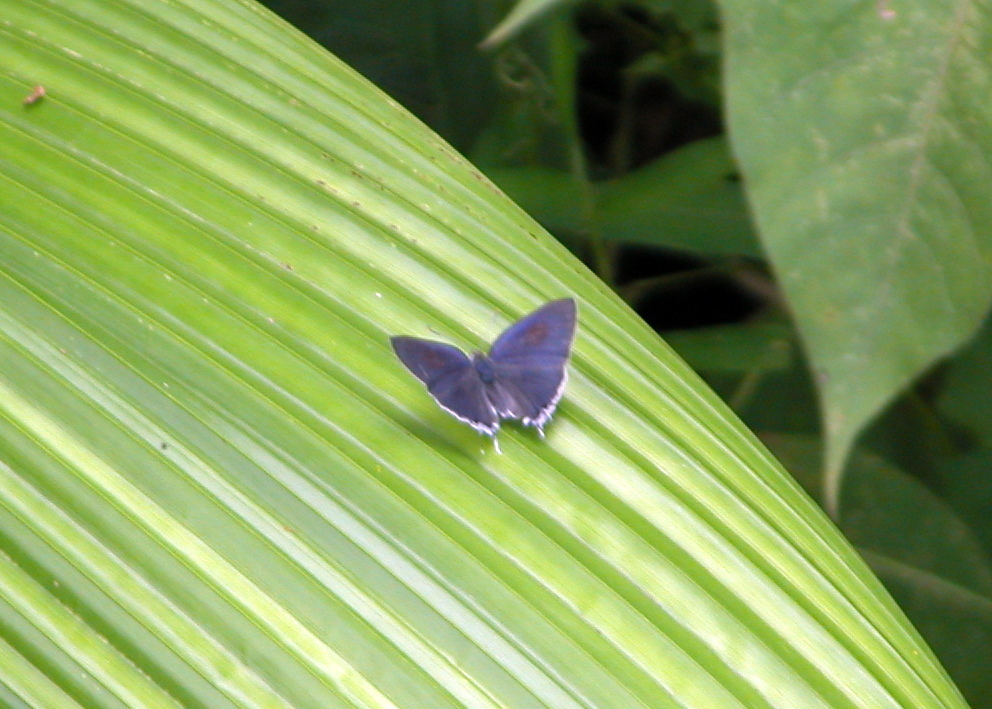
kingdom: Animalia
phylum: Arthropoda
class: Insecta
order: Lepidoptera
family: Lycaenidae
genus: Hypolycaena
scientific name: Hypolycaena erylus
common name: Common tit
